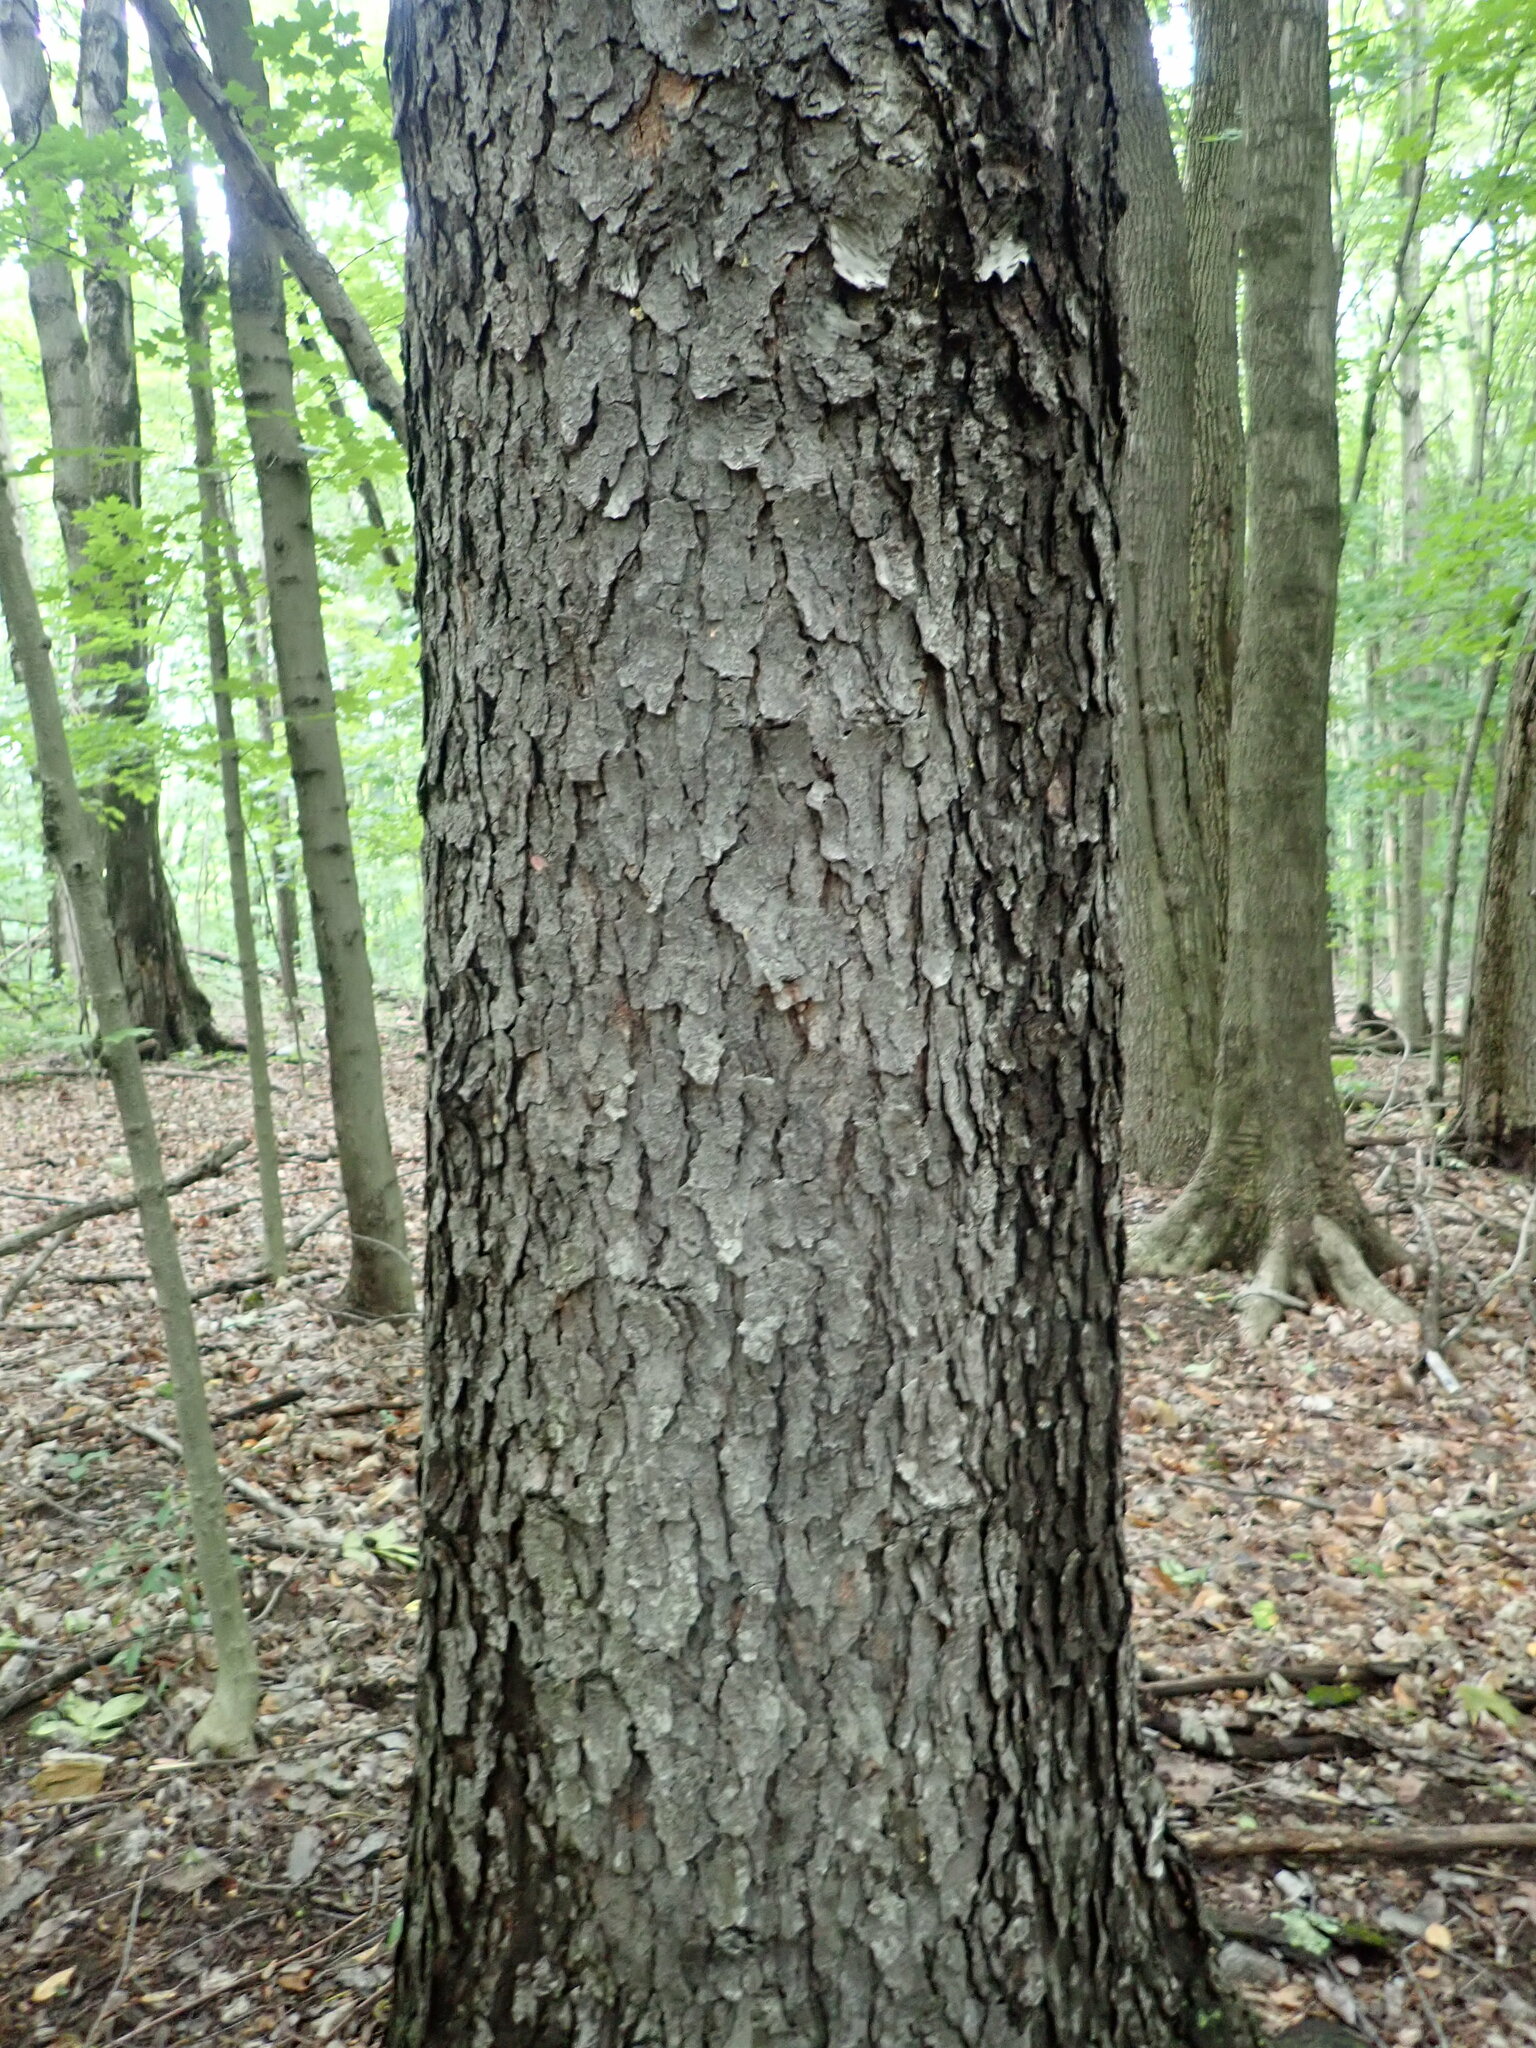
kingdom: Plantae
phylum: Tracheophyta
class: Magnoliopsida
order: Rosales
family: Rosaceae
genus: Prunus
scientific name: Prunus serotina
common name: Black cherry
